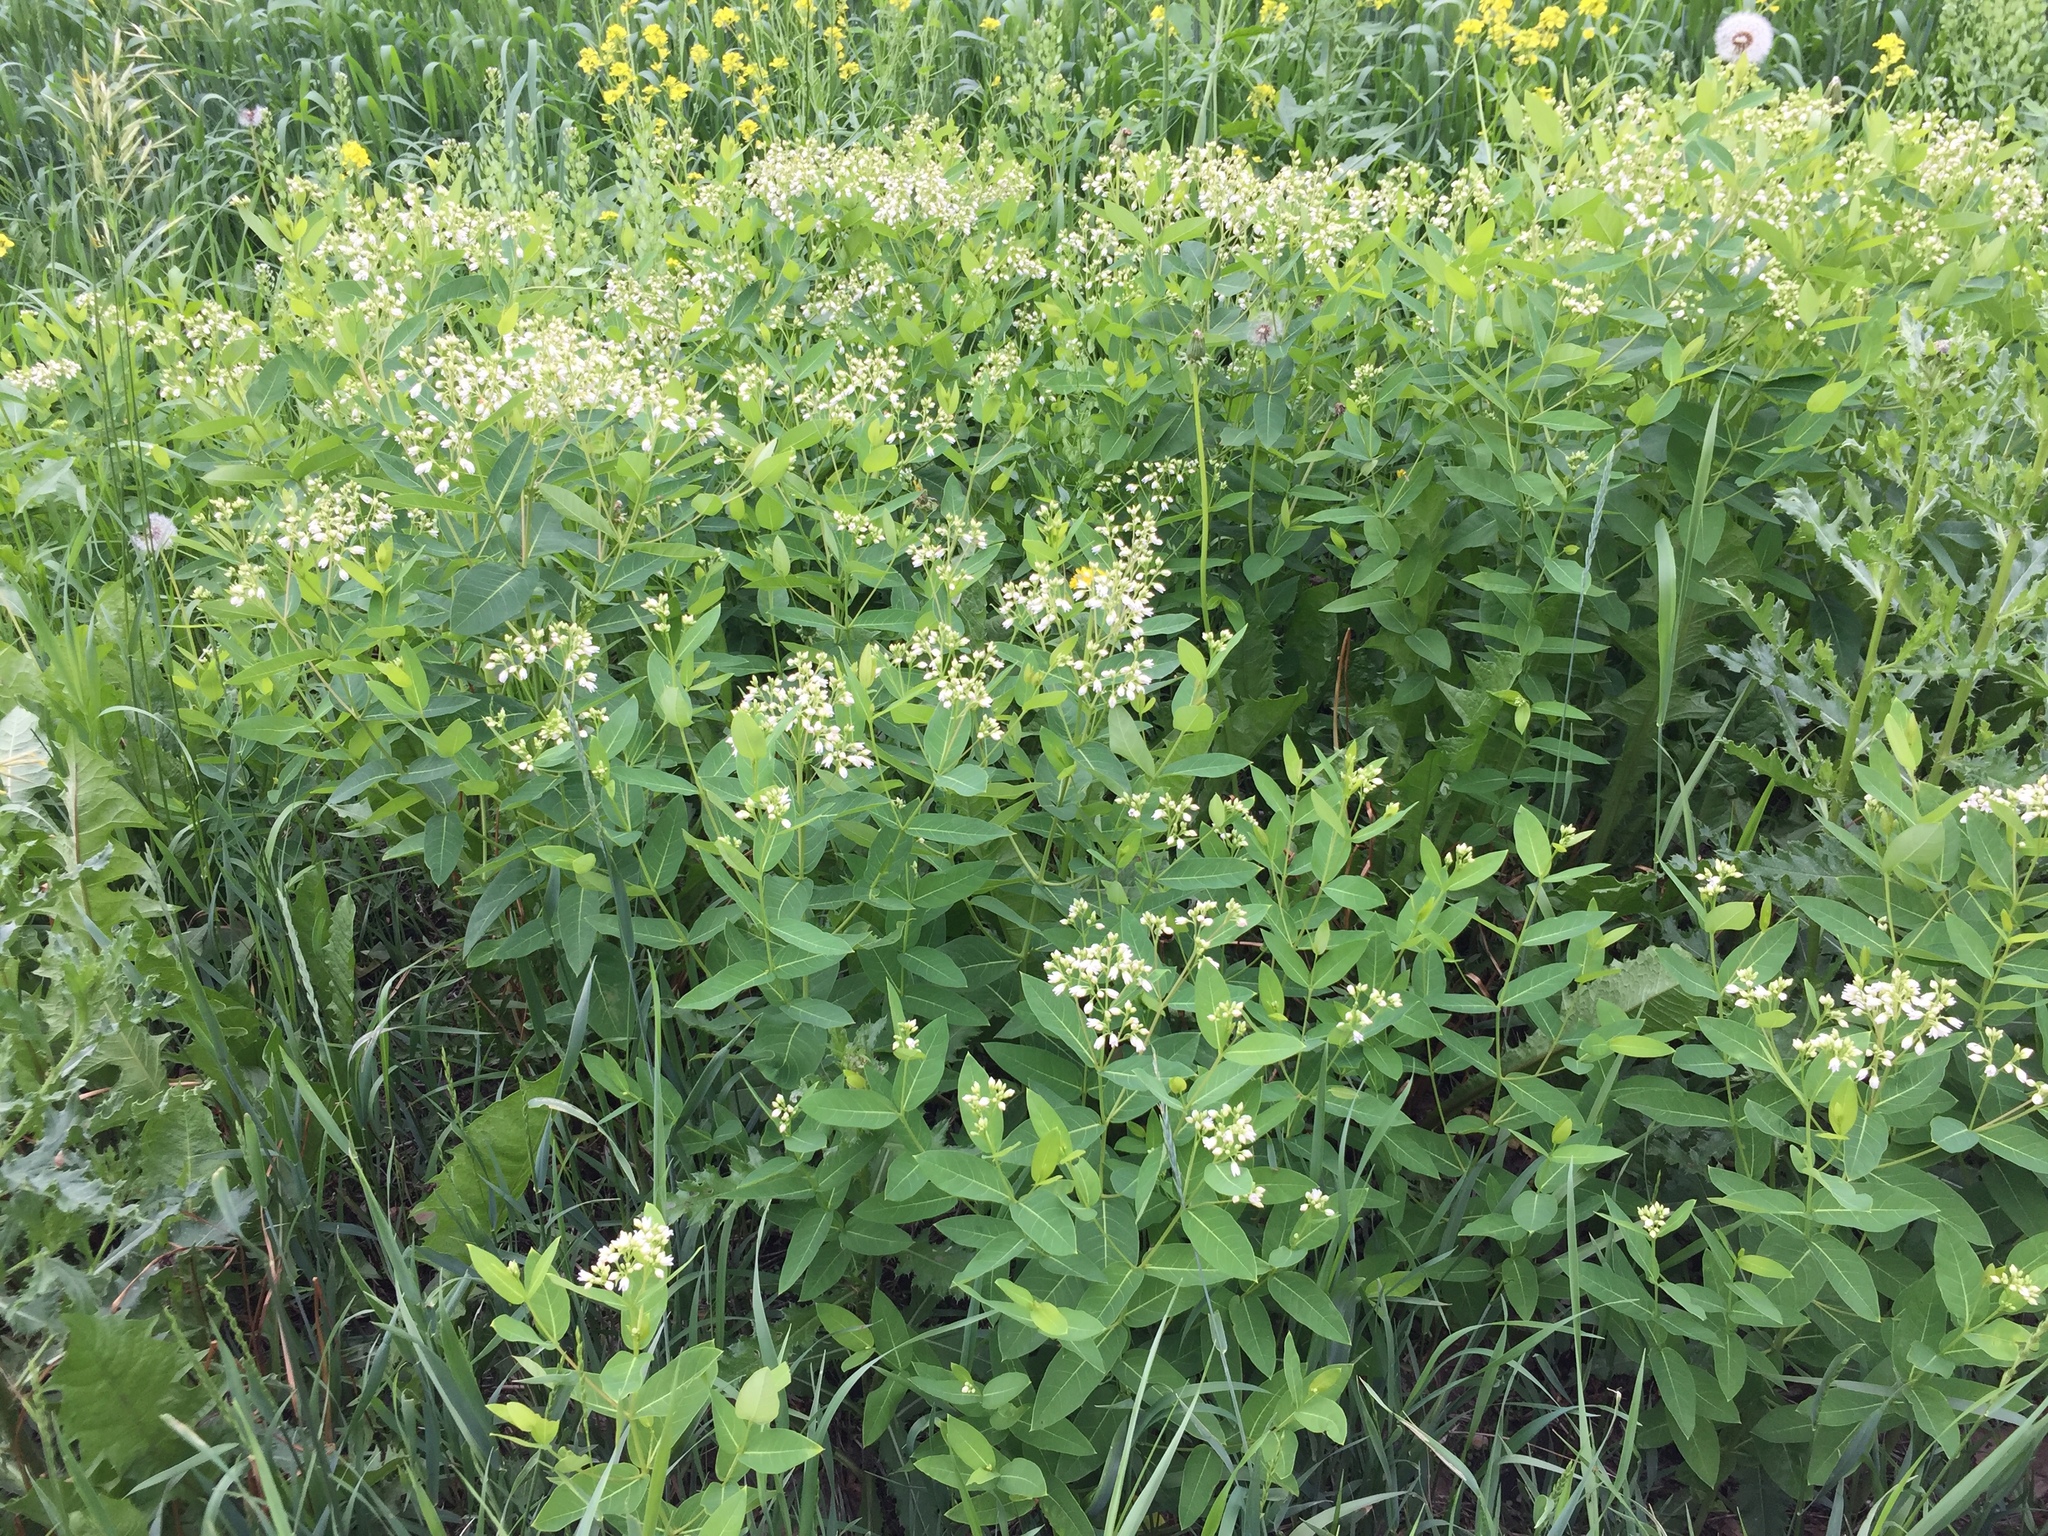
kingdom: Plantae
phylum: Tracheophyta
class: Magnoliopsida
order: Gentianales
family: Apocynaceae
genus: Apocynum
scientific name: Apocynum cannabinum
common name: Hemp dogbane
